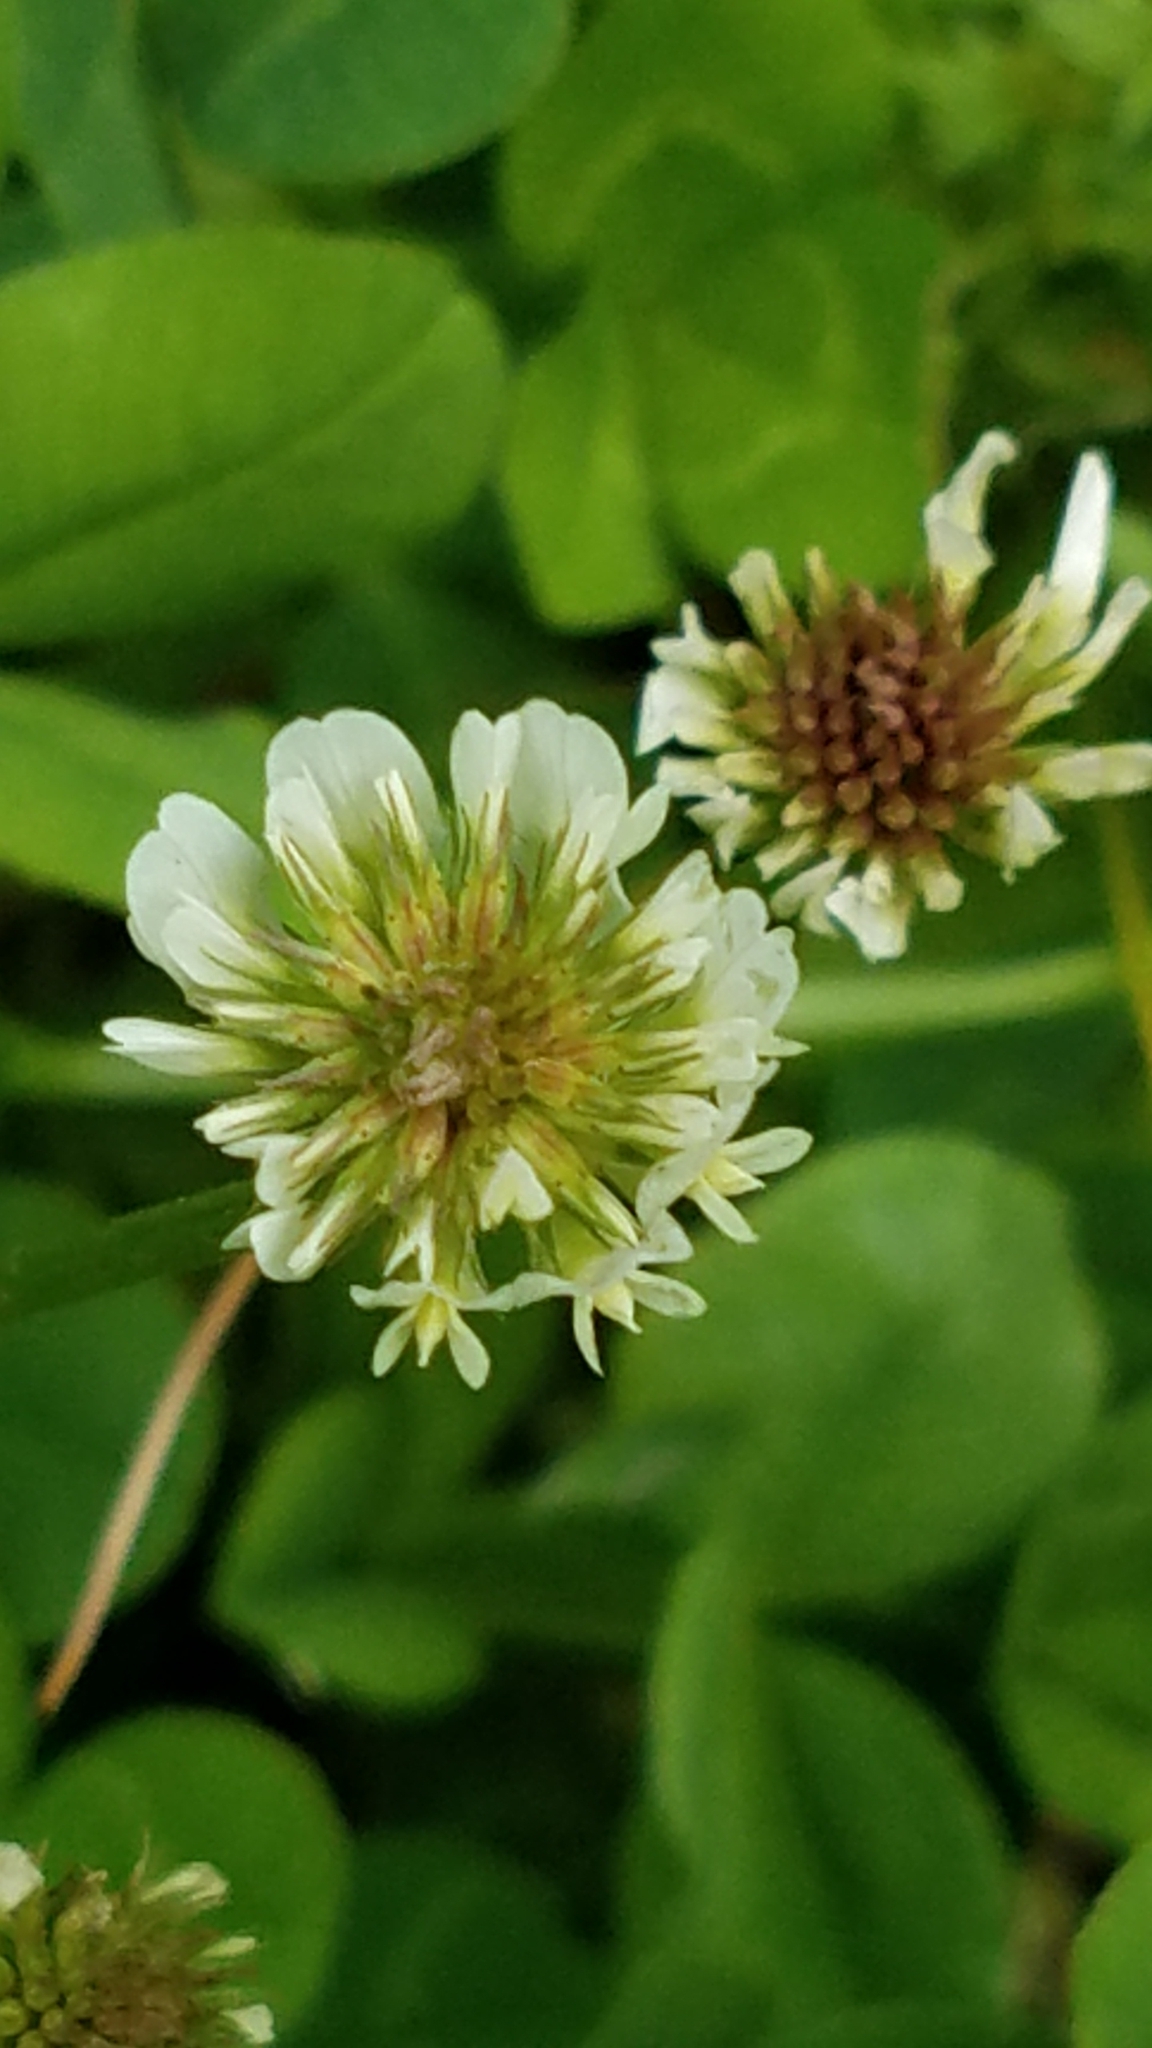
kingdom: Plantae
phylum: Tracheophyta
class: Magnoliopsida
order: Fabales
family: Fabaceae
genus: Trifolium
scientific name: Trifolium repens
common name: White clover
